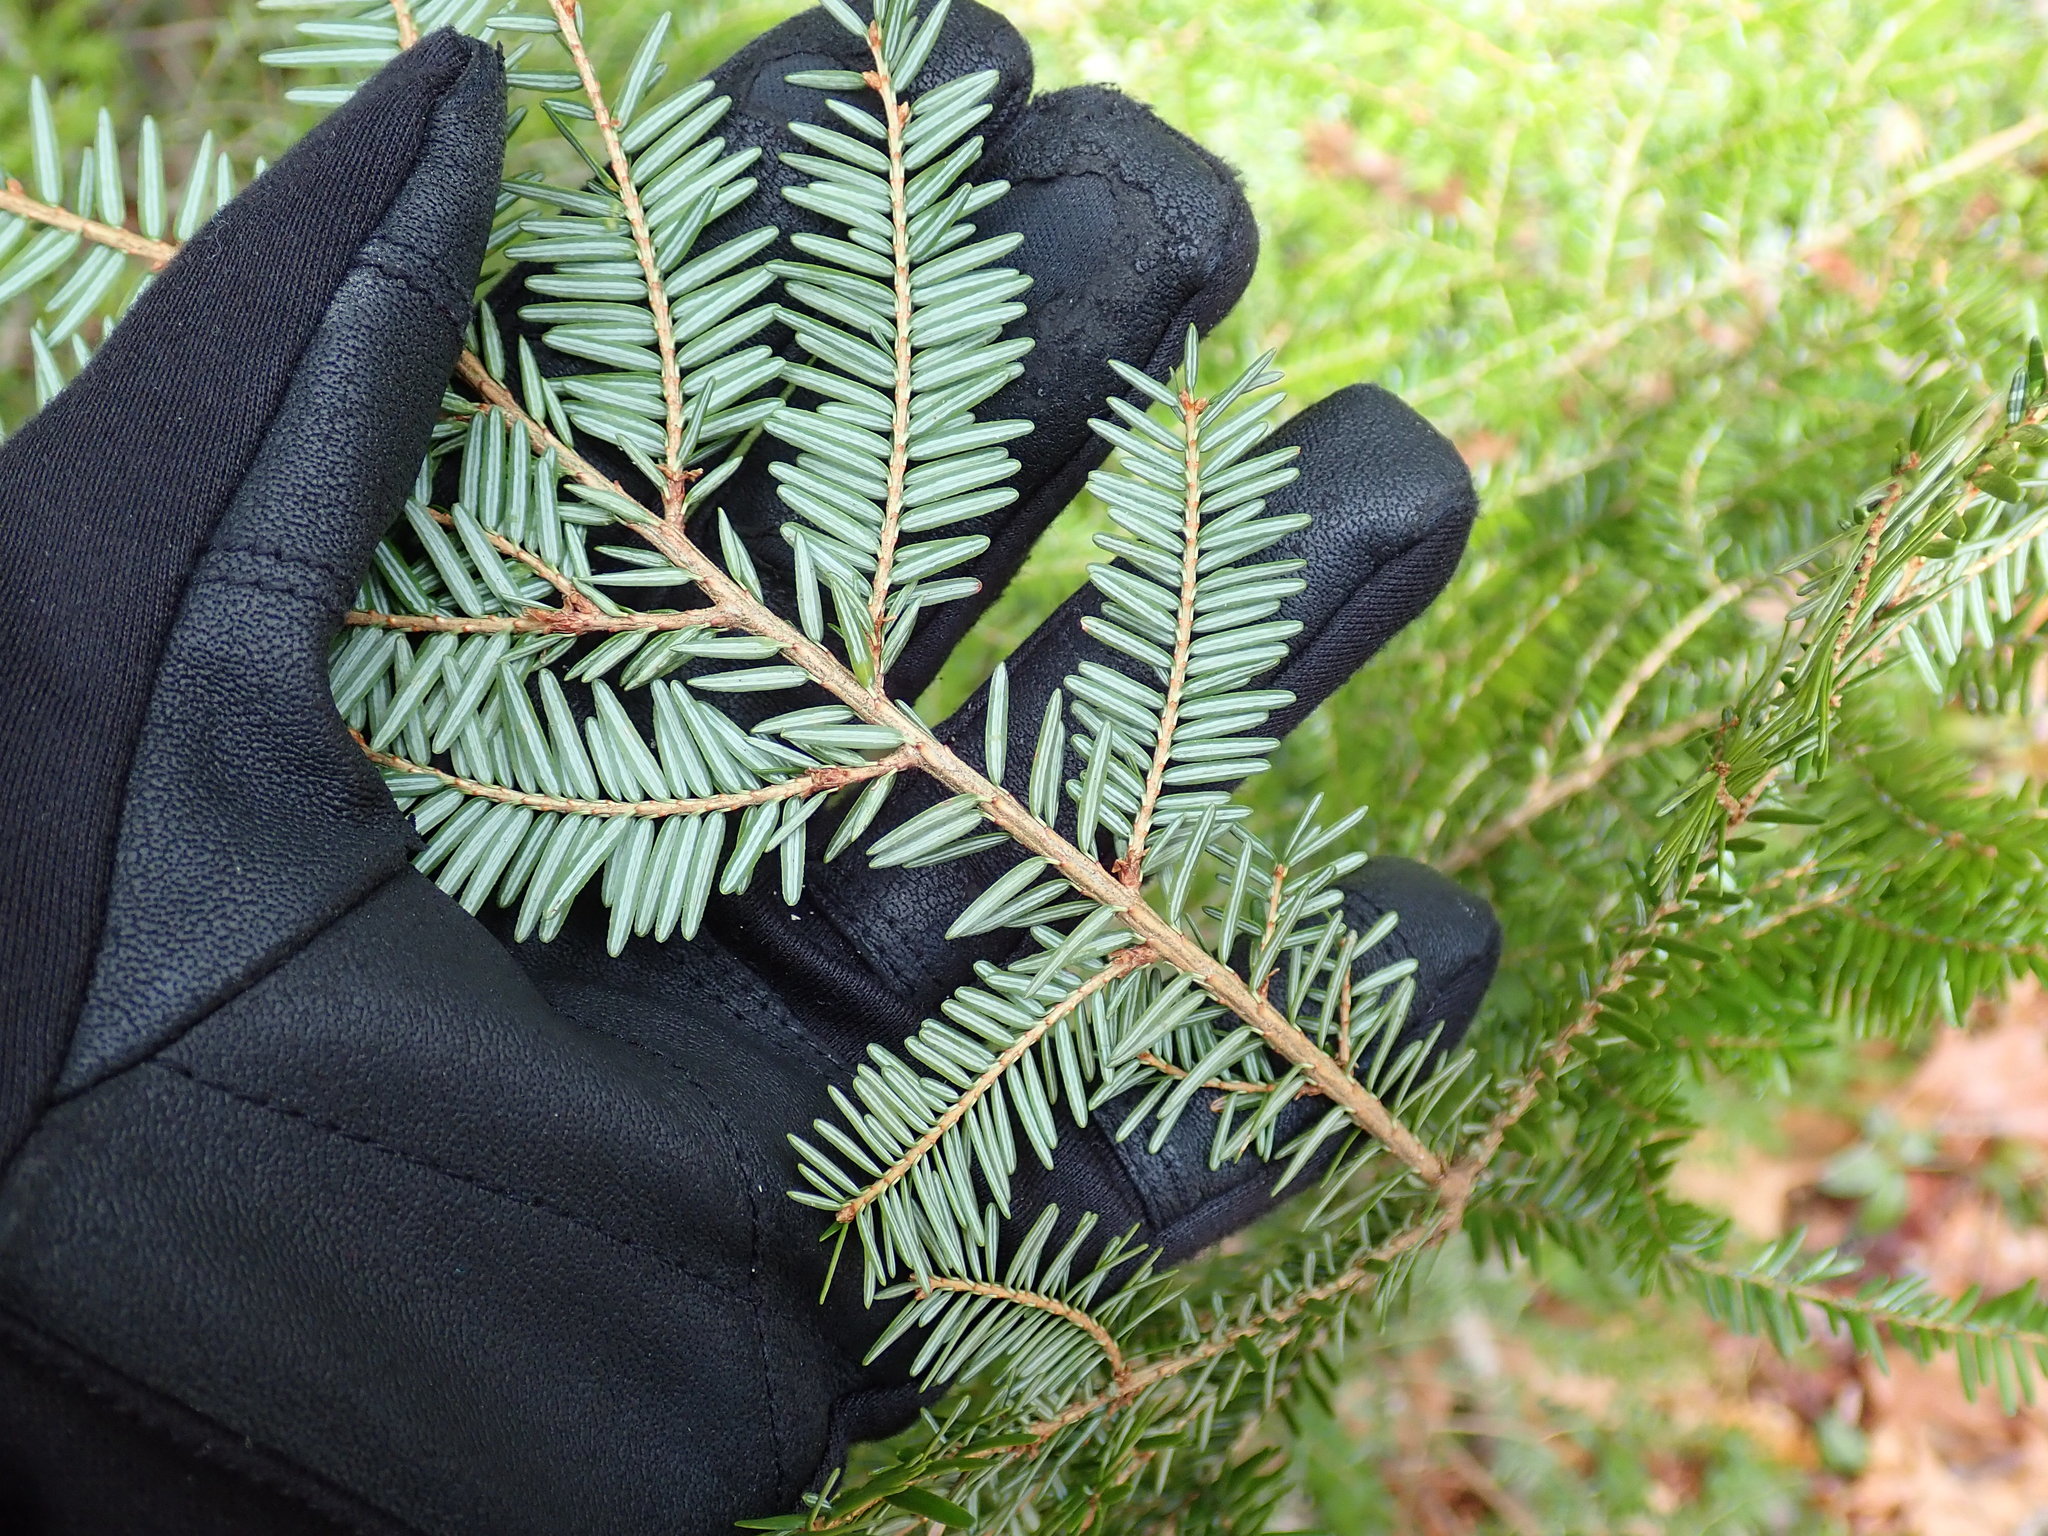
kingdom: Plantae
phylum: Tracheophyta
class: Pinopsida
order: Pinales
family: Pinaceae
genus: Tsuga
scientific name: Tsuga canadensis
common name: Eastern hemlock
